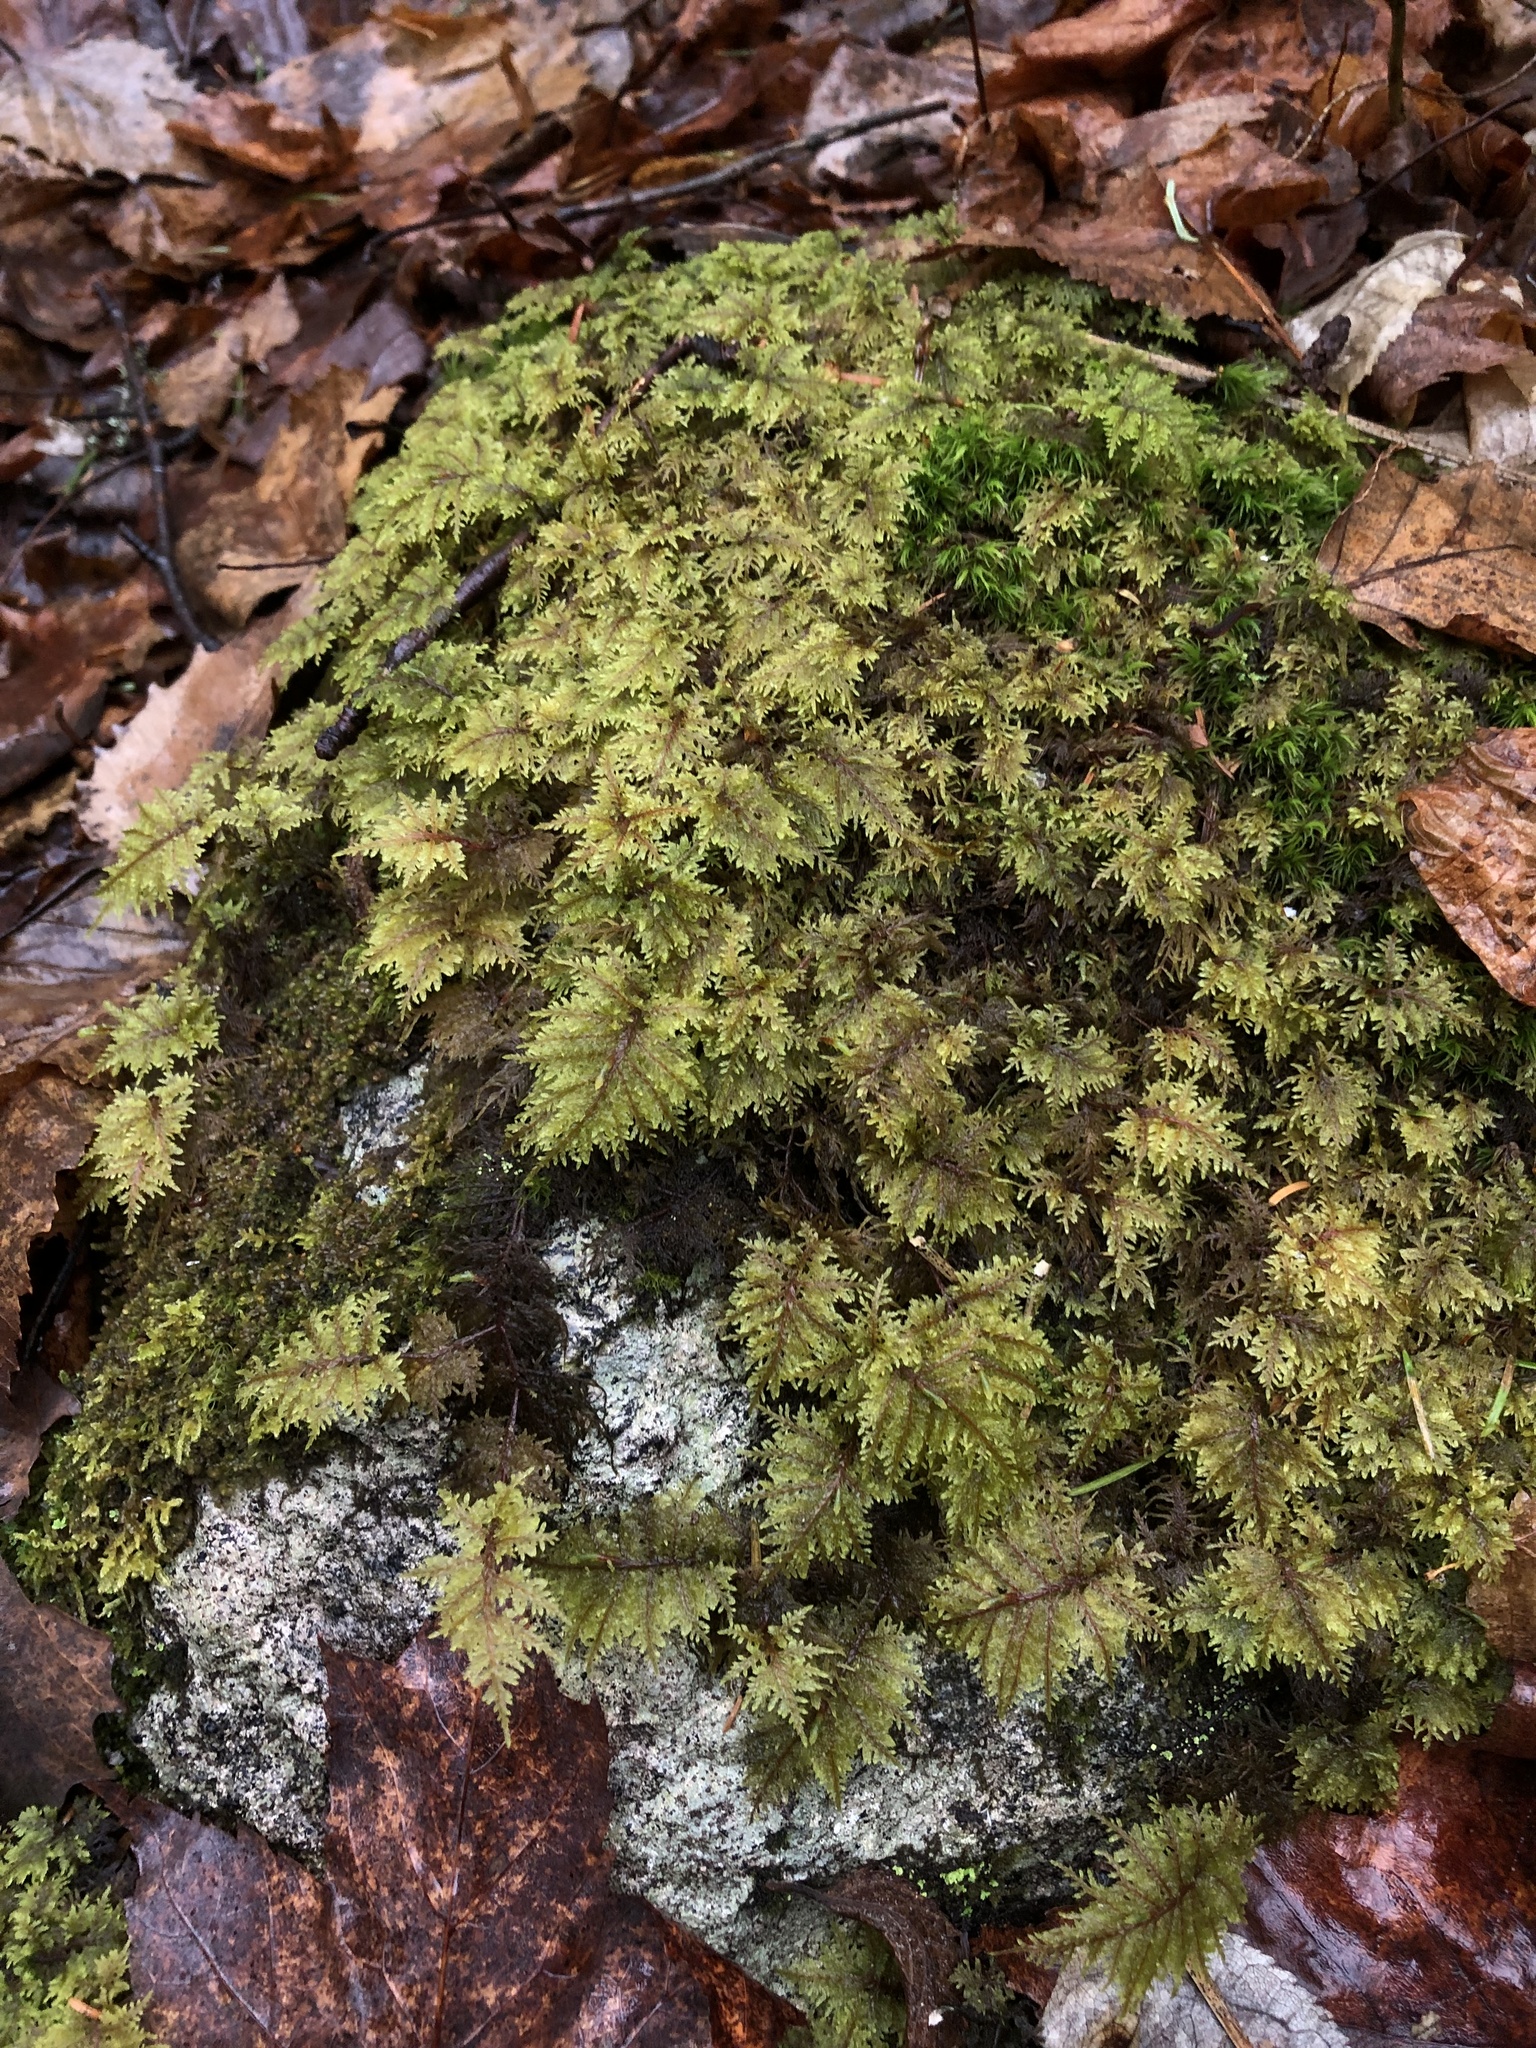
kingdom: Plantae
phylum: Bryophyta
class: Bryopsida
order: Hypnales
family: Hylocomiaceae
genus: Hylocomium
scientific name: Hylocomium splendens
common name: Stairstep moss
